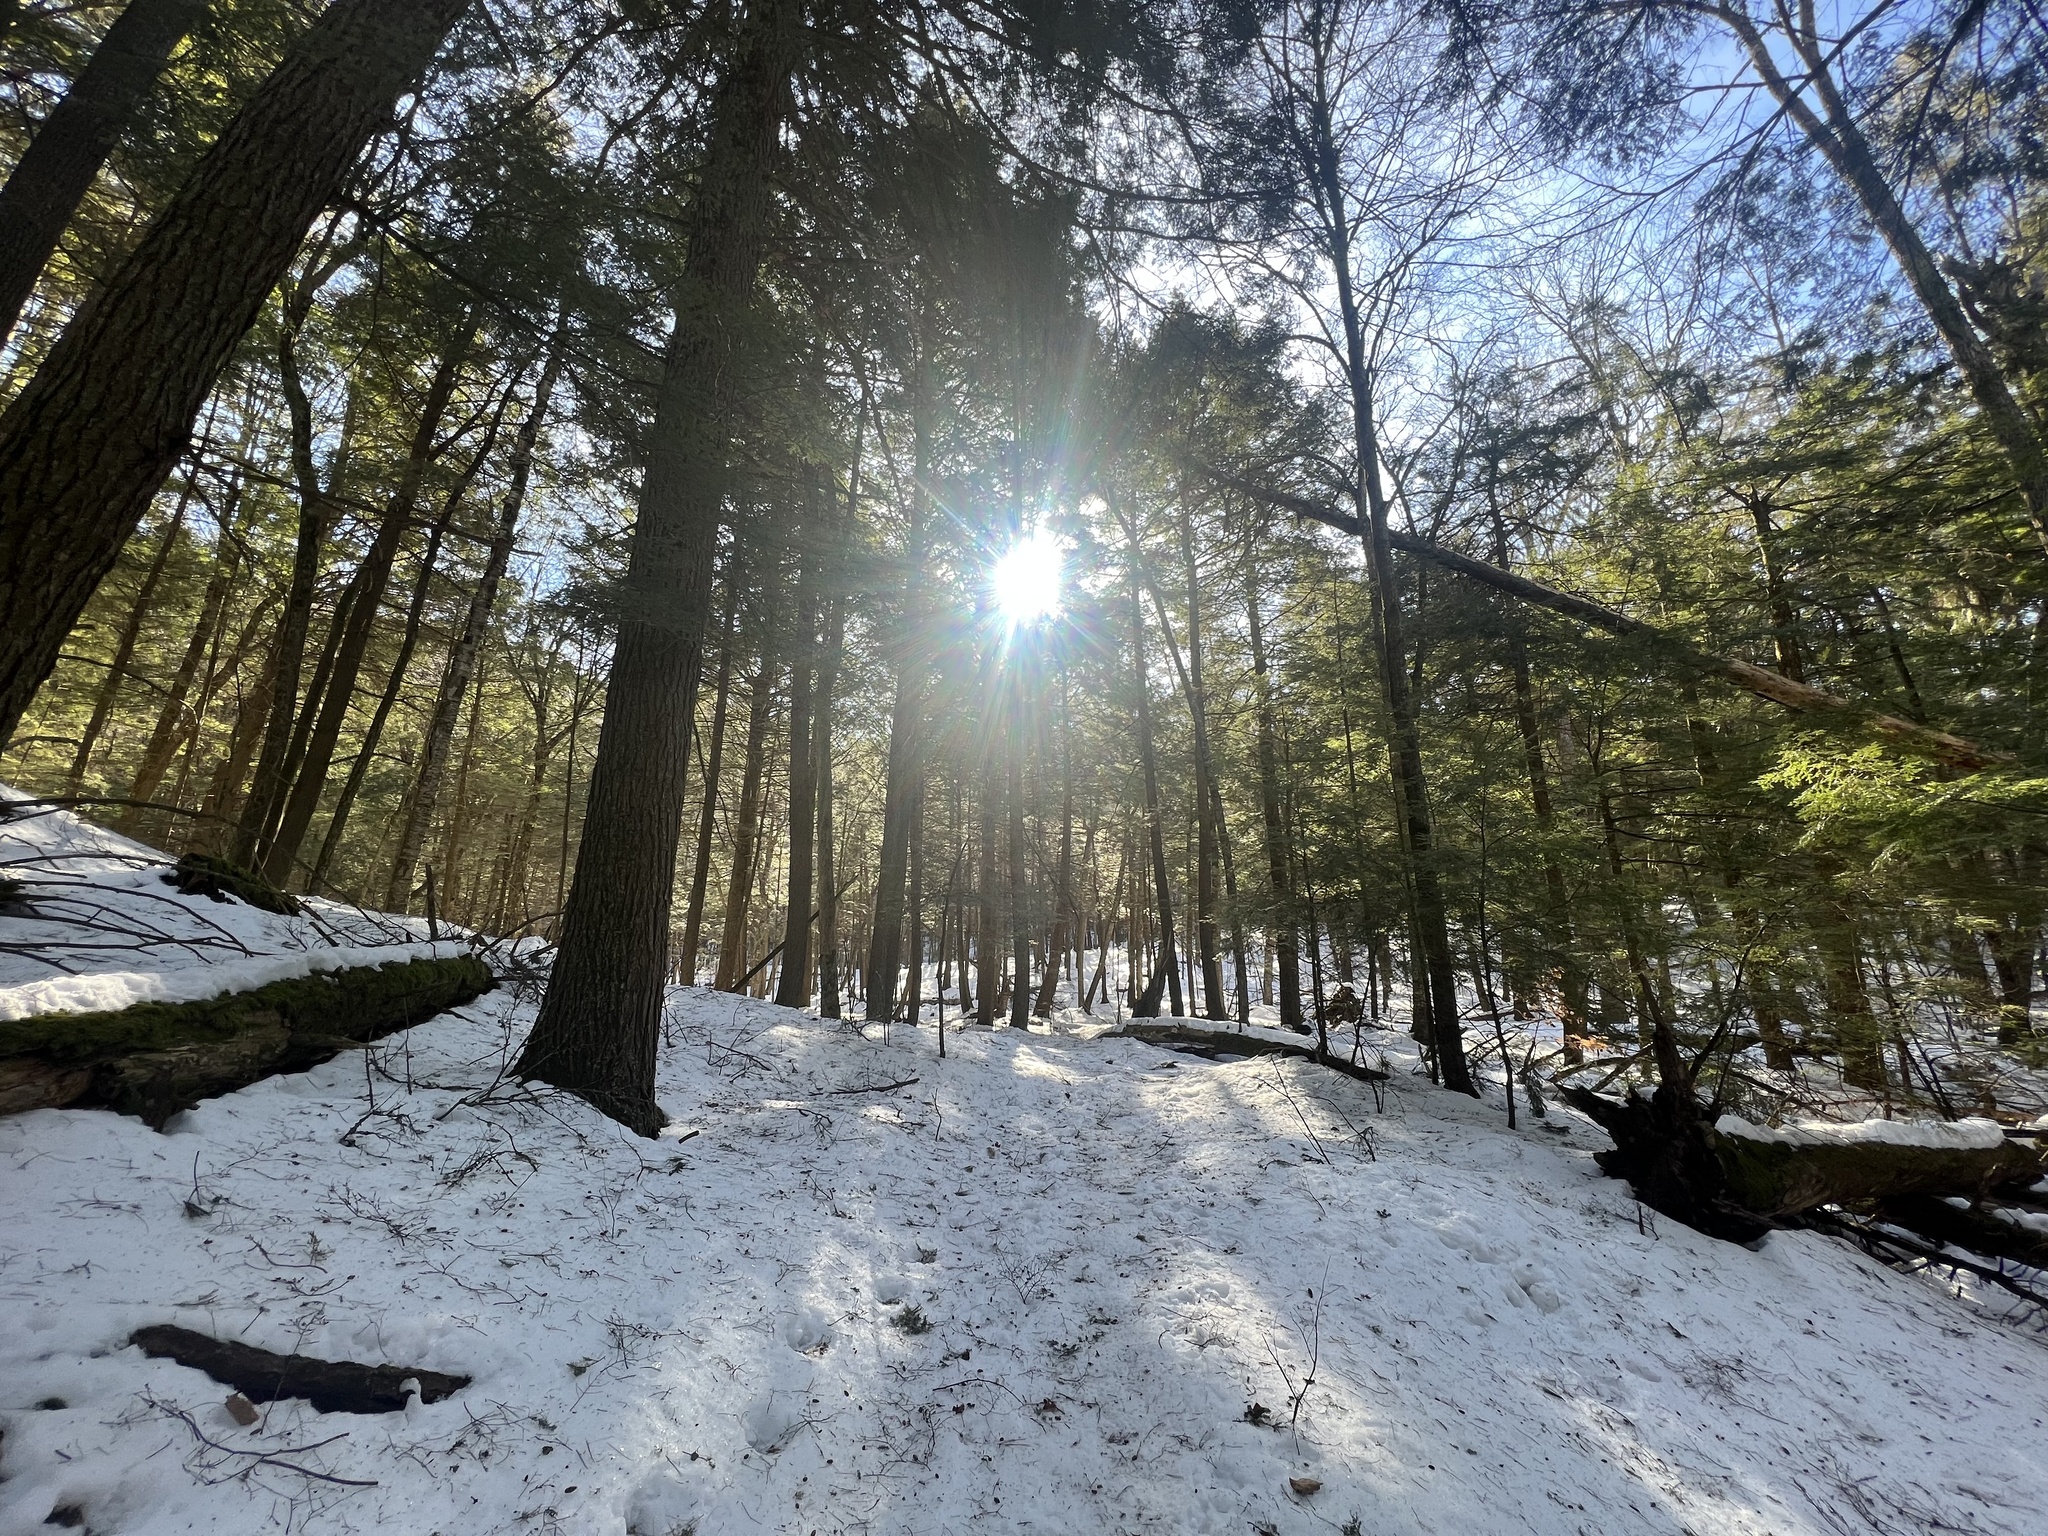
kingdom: Plantae
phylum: Tracheophyta
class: Pinopsida
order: Pinales
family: Pinaceae
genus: Tsuga
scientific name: Tsuga canadensis
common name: Eastern hemlock
